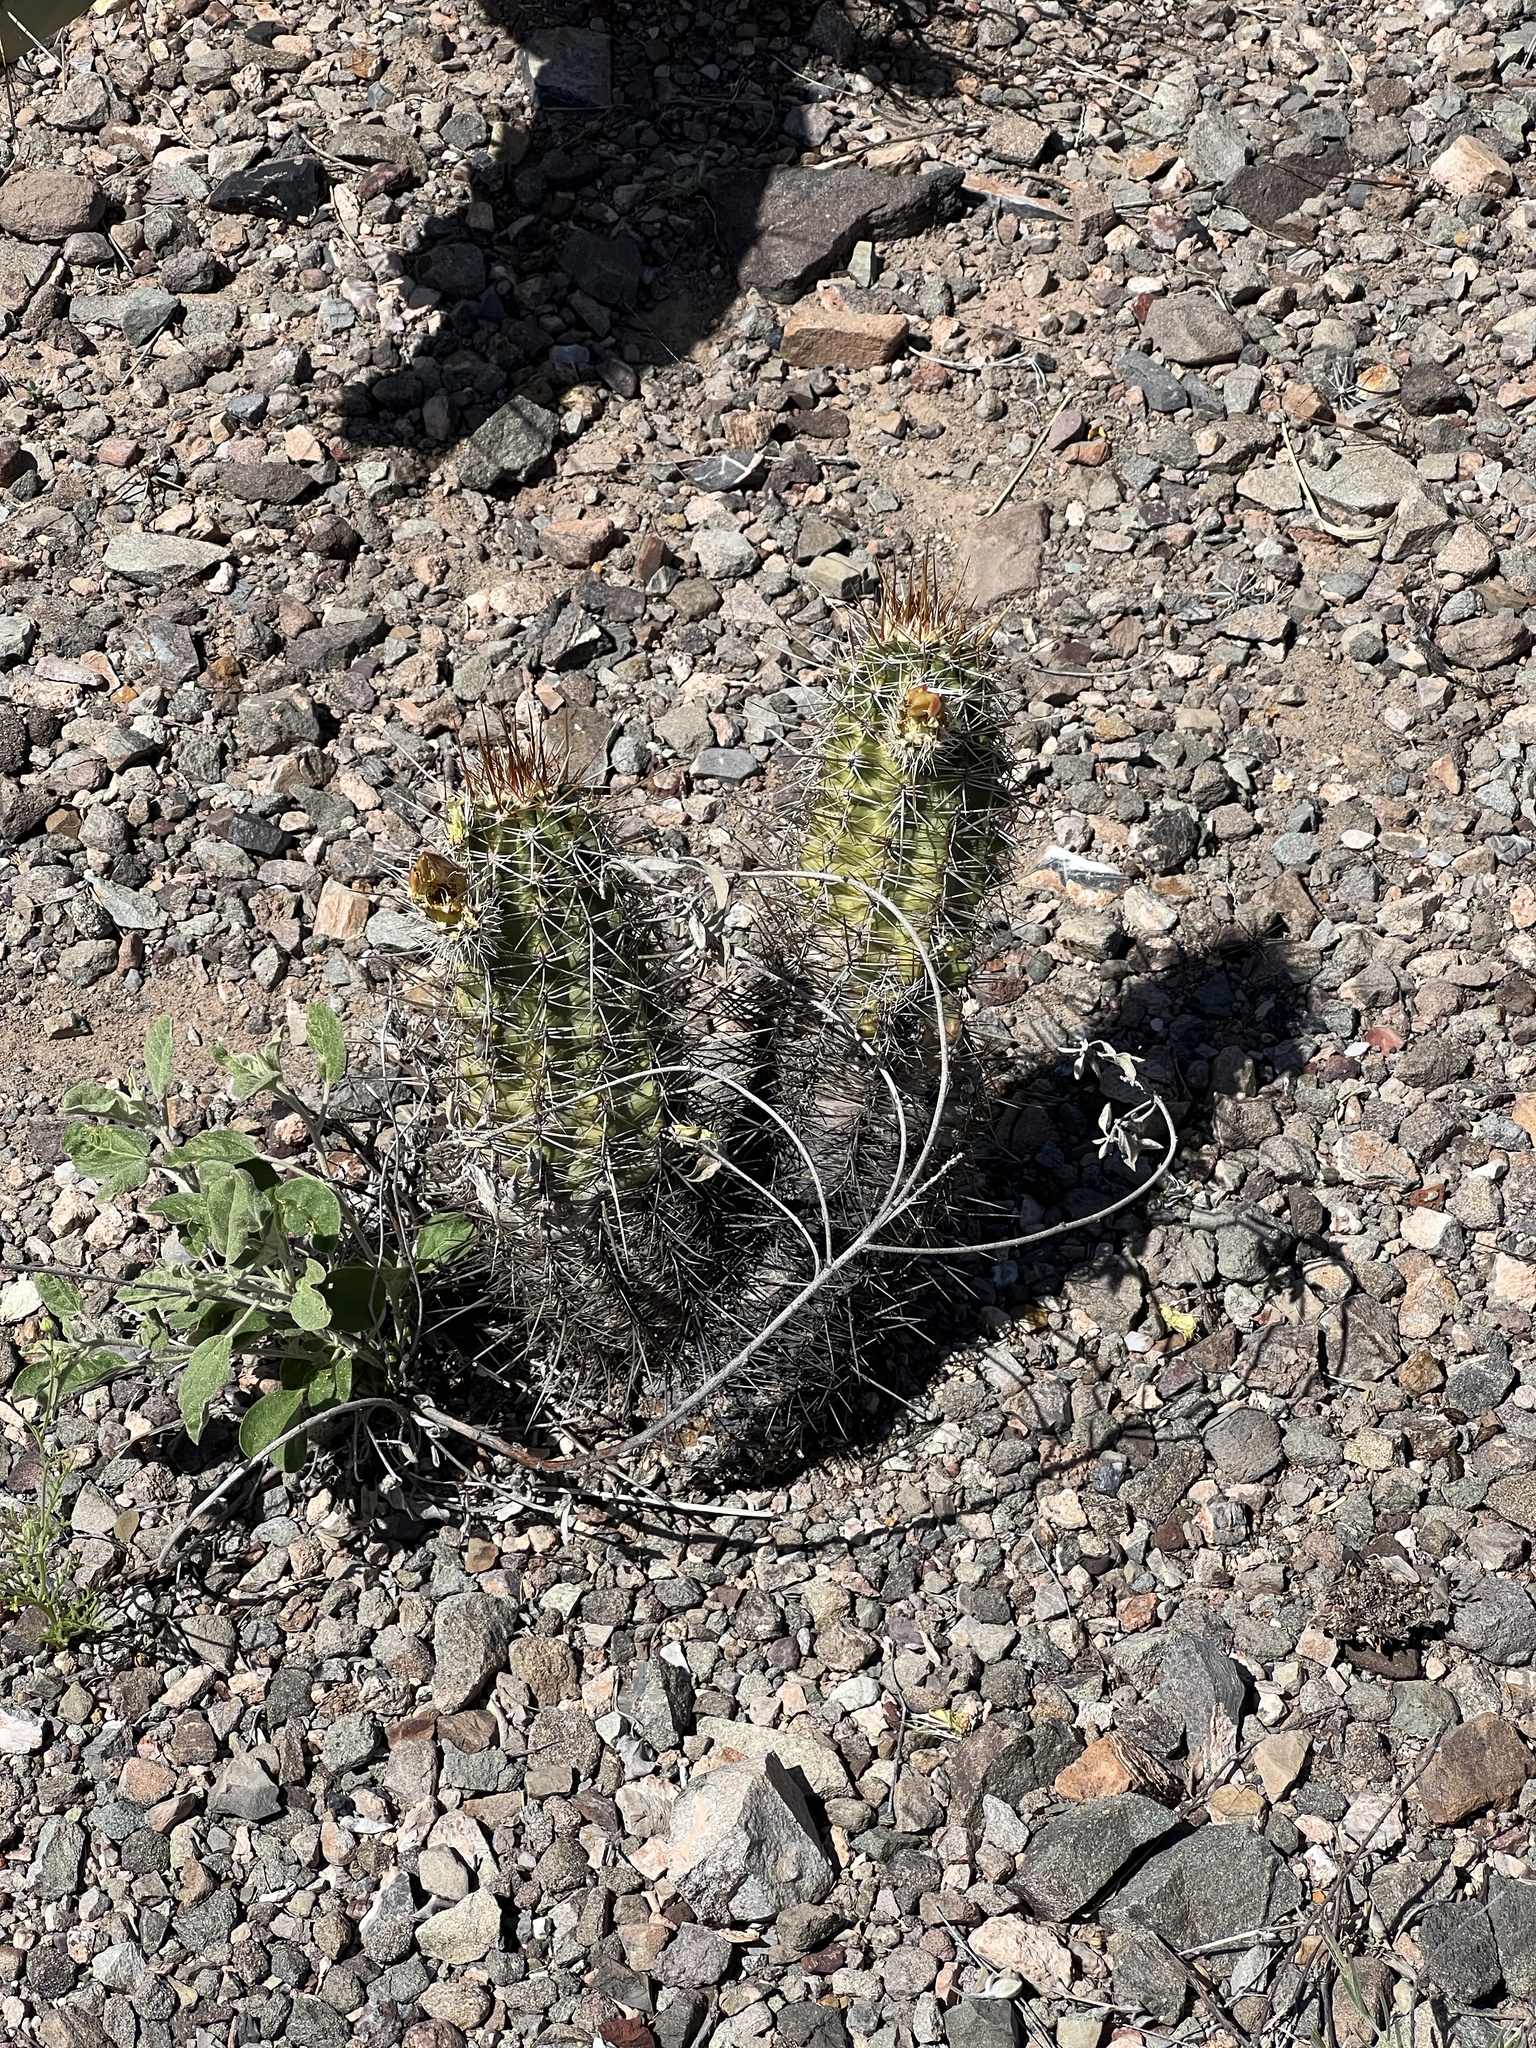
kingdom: Plantae
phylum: Tracheophyta
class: Magnoliopsida
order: Caryophyllales
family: Cactaceae
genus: Echinocereus
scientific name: Echinocereus fasciculatus
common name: Bundle hedgehog
